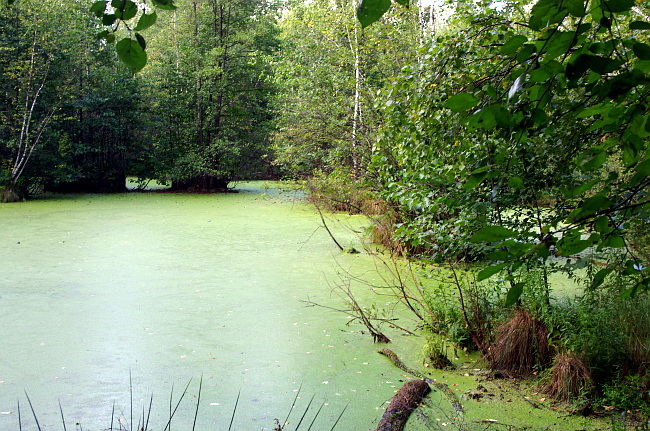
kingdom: Plantae
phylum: Tracheophyta
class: Liliopsida
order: Alismatales
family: Araceae
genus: Lemna
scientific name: Lemna minor
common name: Common duckweed
